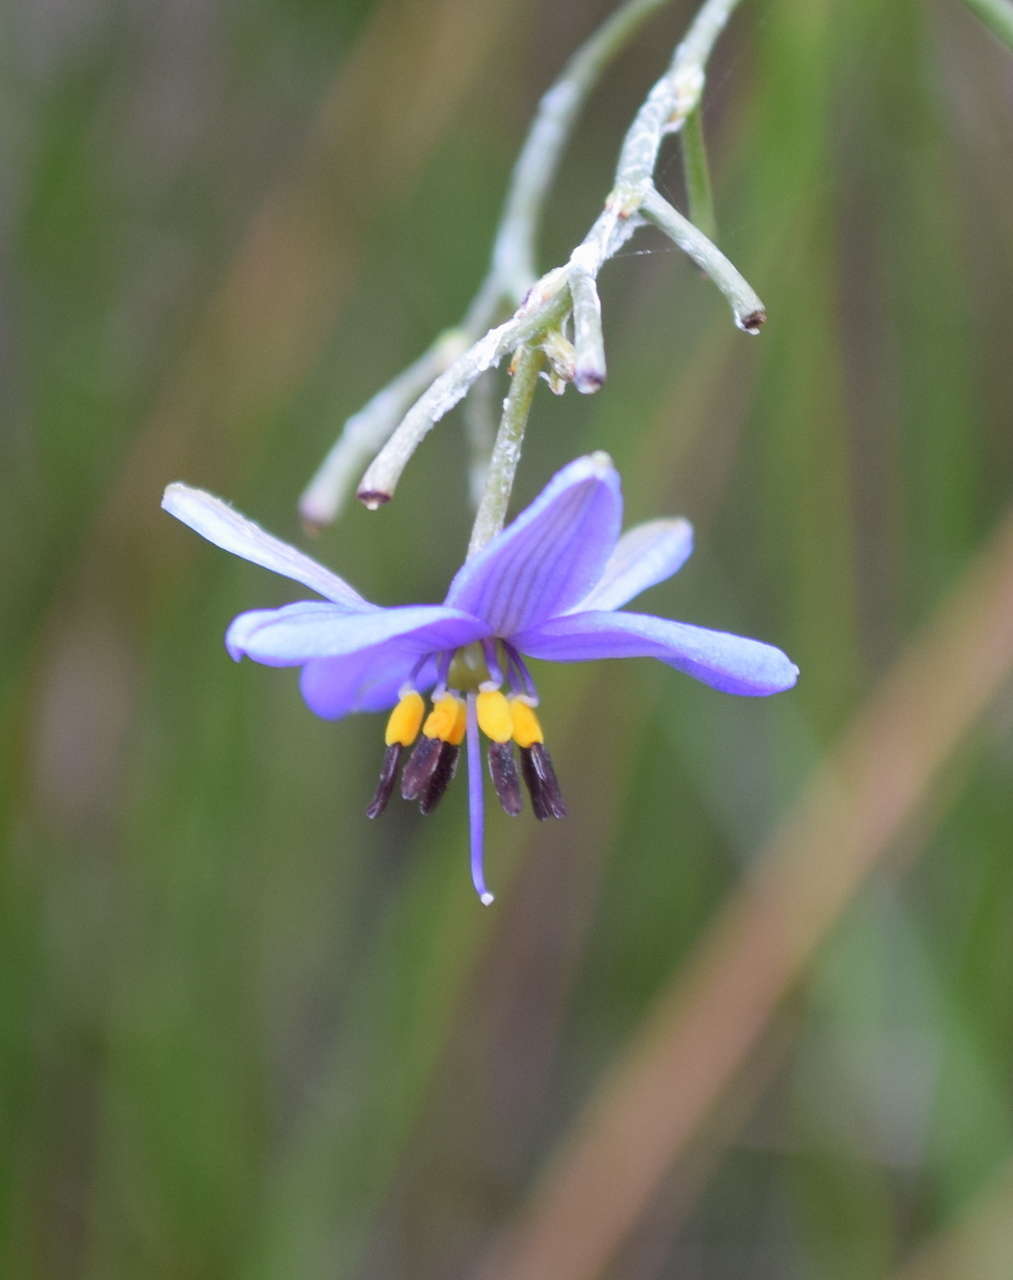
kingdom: Plantae
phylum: Tracheophyta
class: Liliopsida
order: Asparagales
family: Asphodelaceae
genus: Dianella
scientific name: Dianella revoluta
